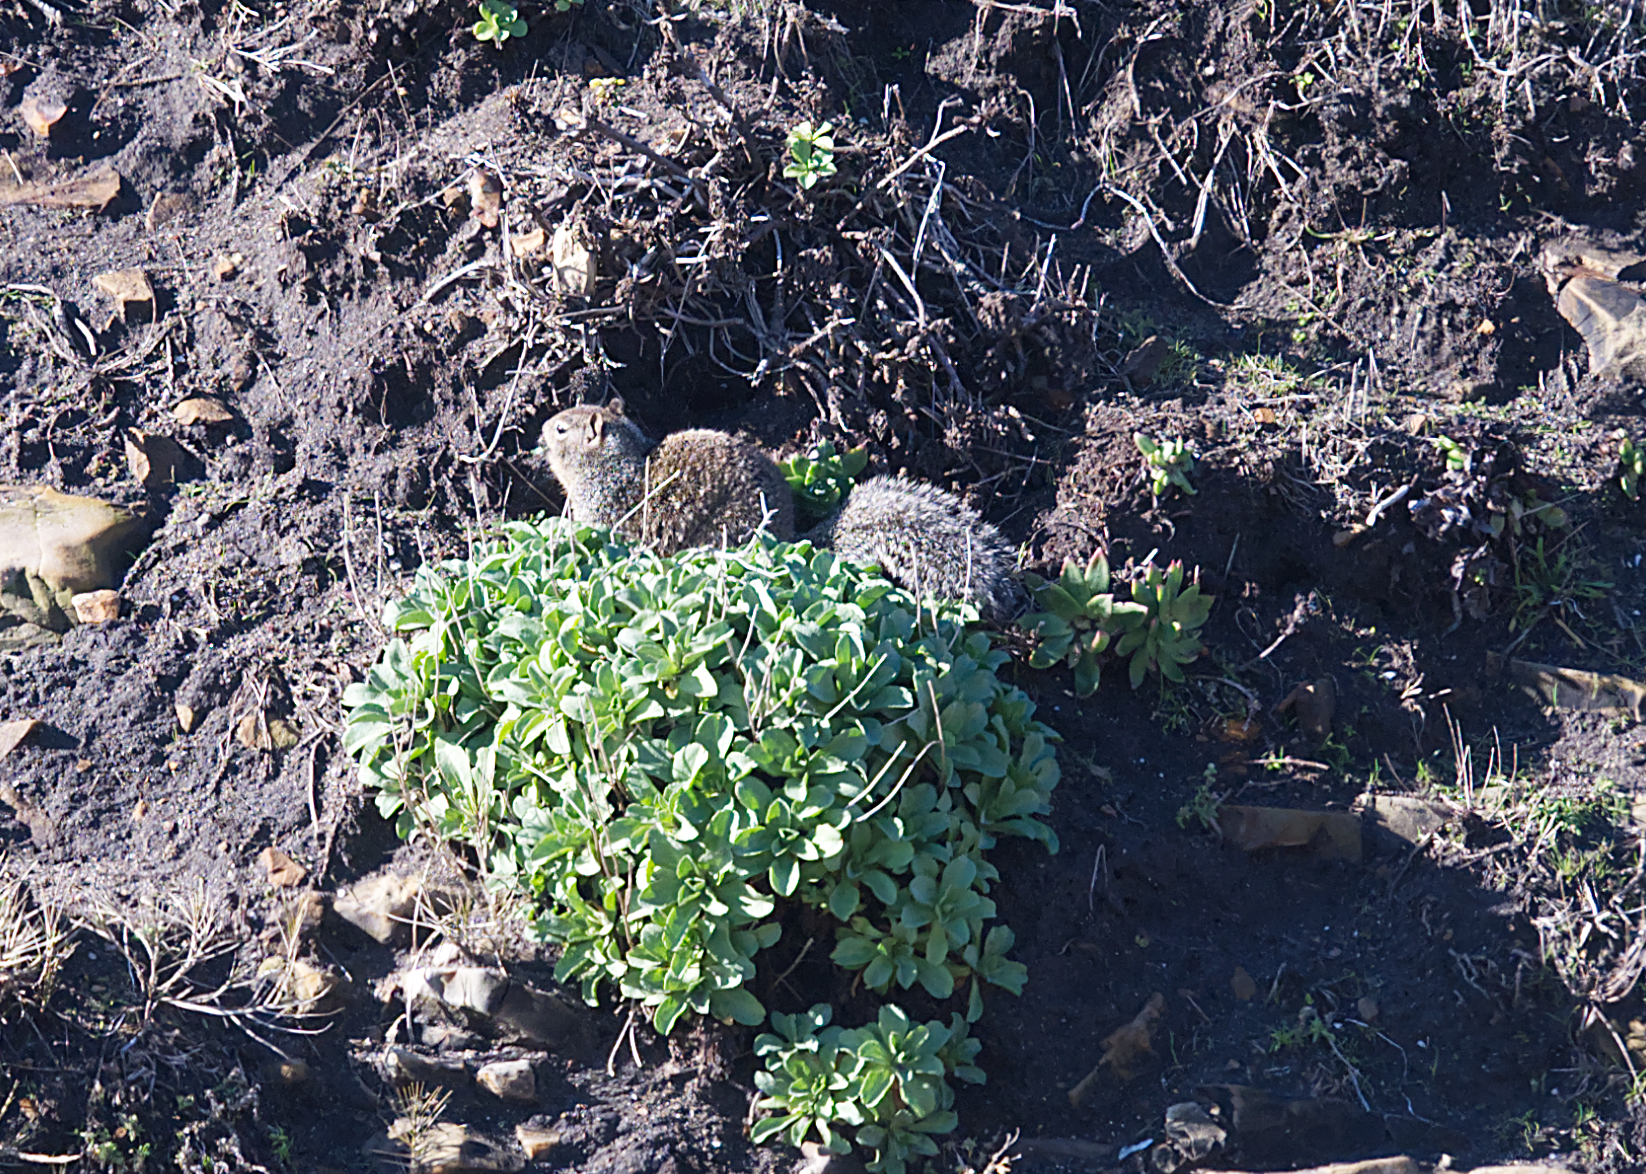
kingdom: Animalia
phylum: Chordata
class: Mammalia
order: Rodentia
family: Sciuridae
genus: Otospermophilus
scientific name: Otospermophilus beecheyi
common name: California ground squirrel
